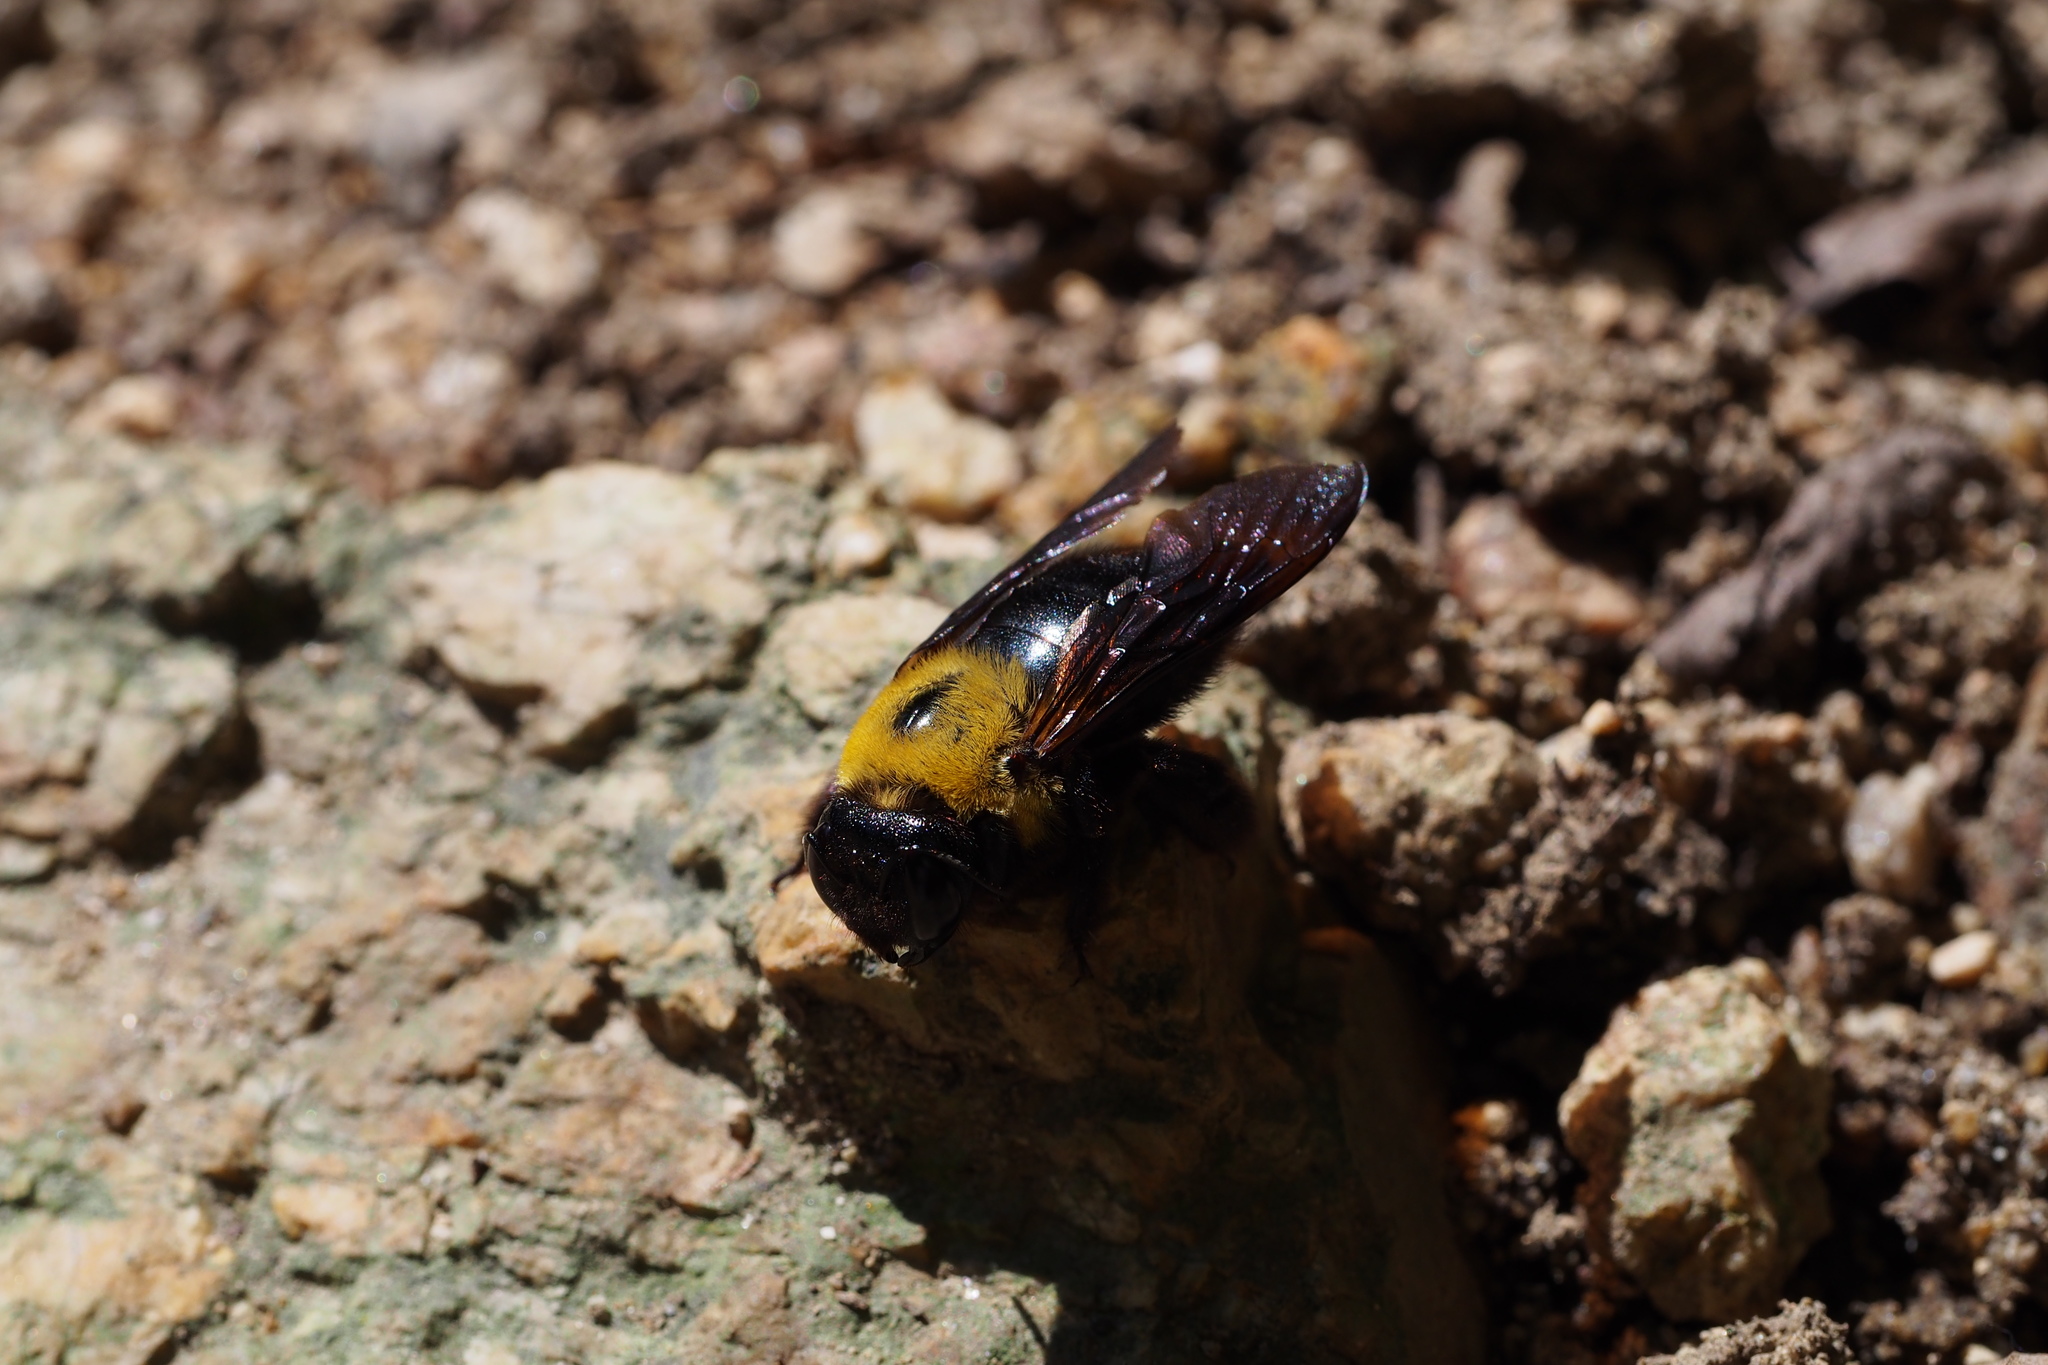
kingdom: Animalia
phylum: Arthropoda
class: Insecta
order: Hymenoptera
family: Apidae
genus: Xylocopa
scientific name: Xylocopa appendiculata
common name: Japanese carpenter bee
